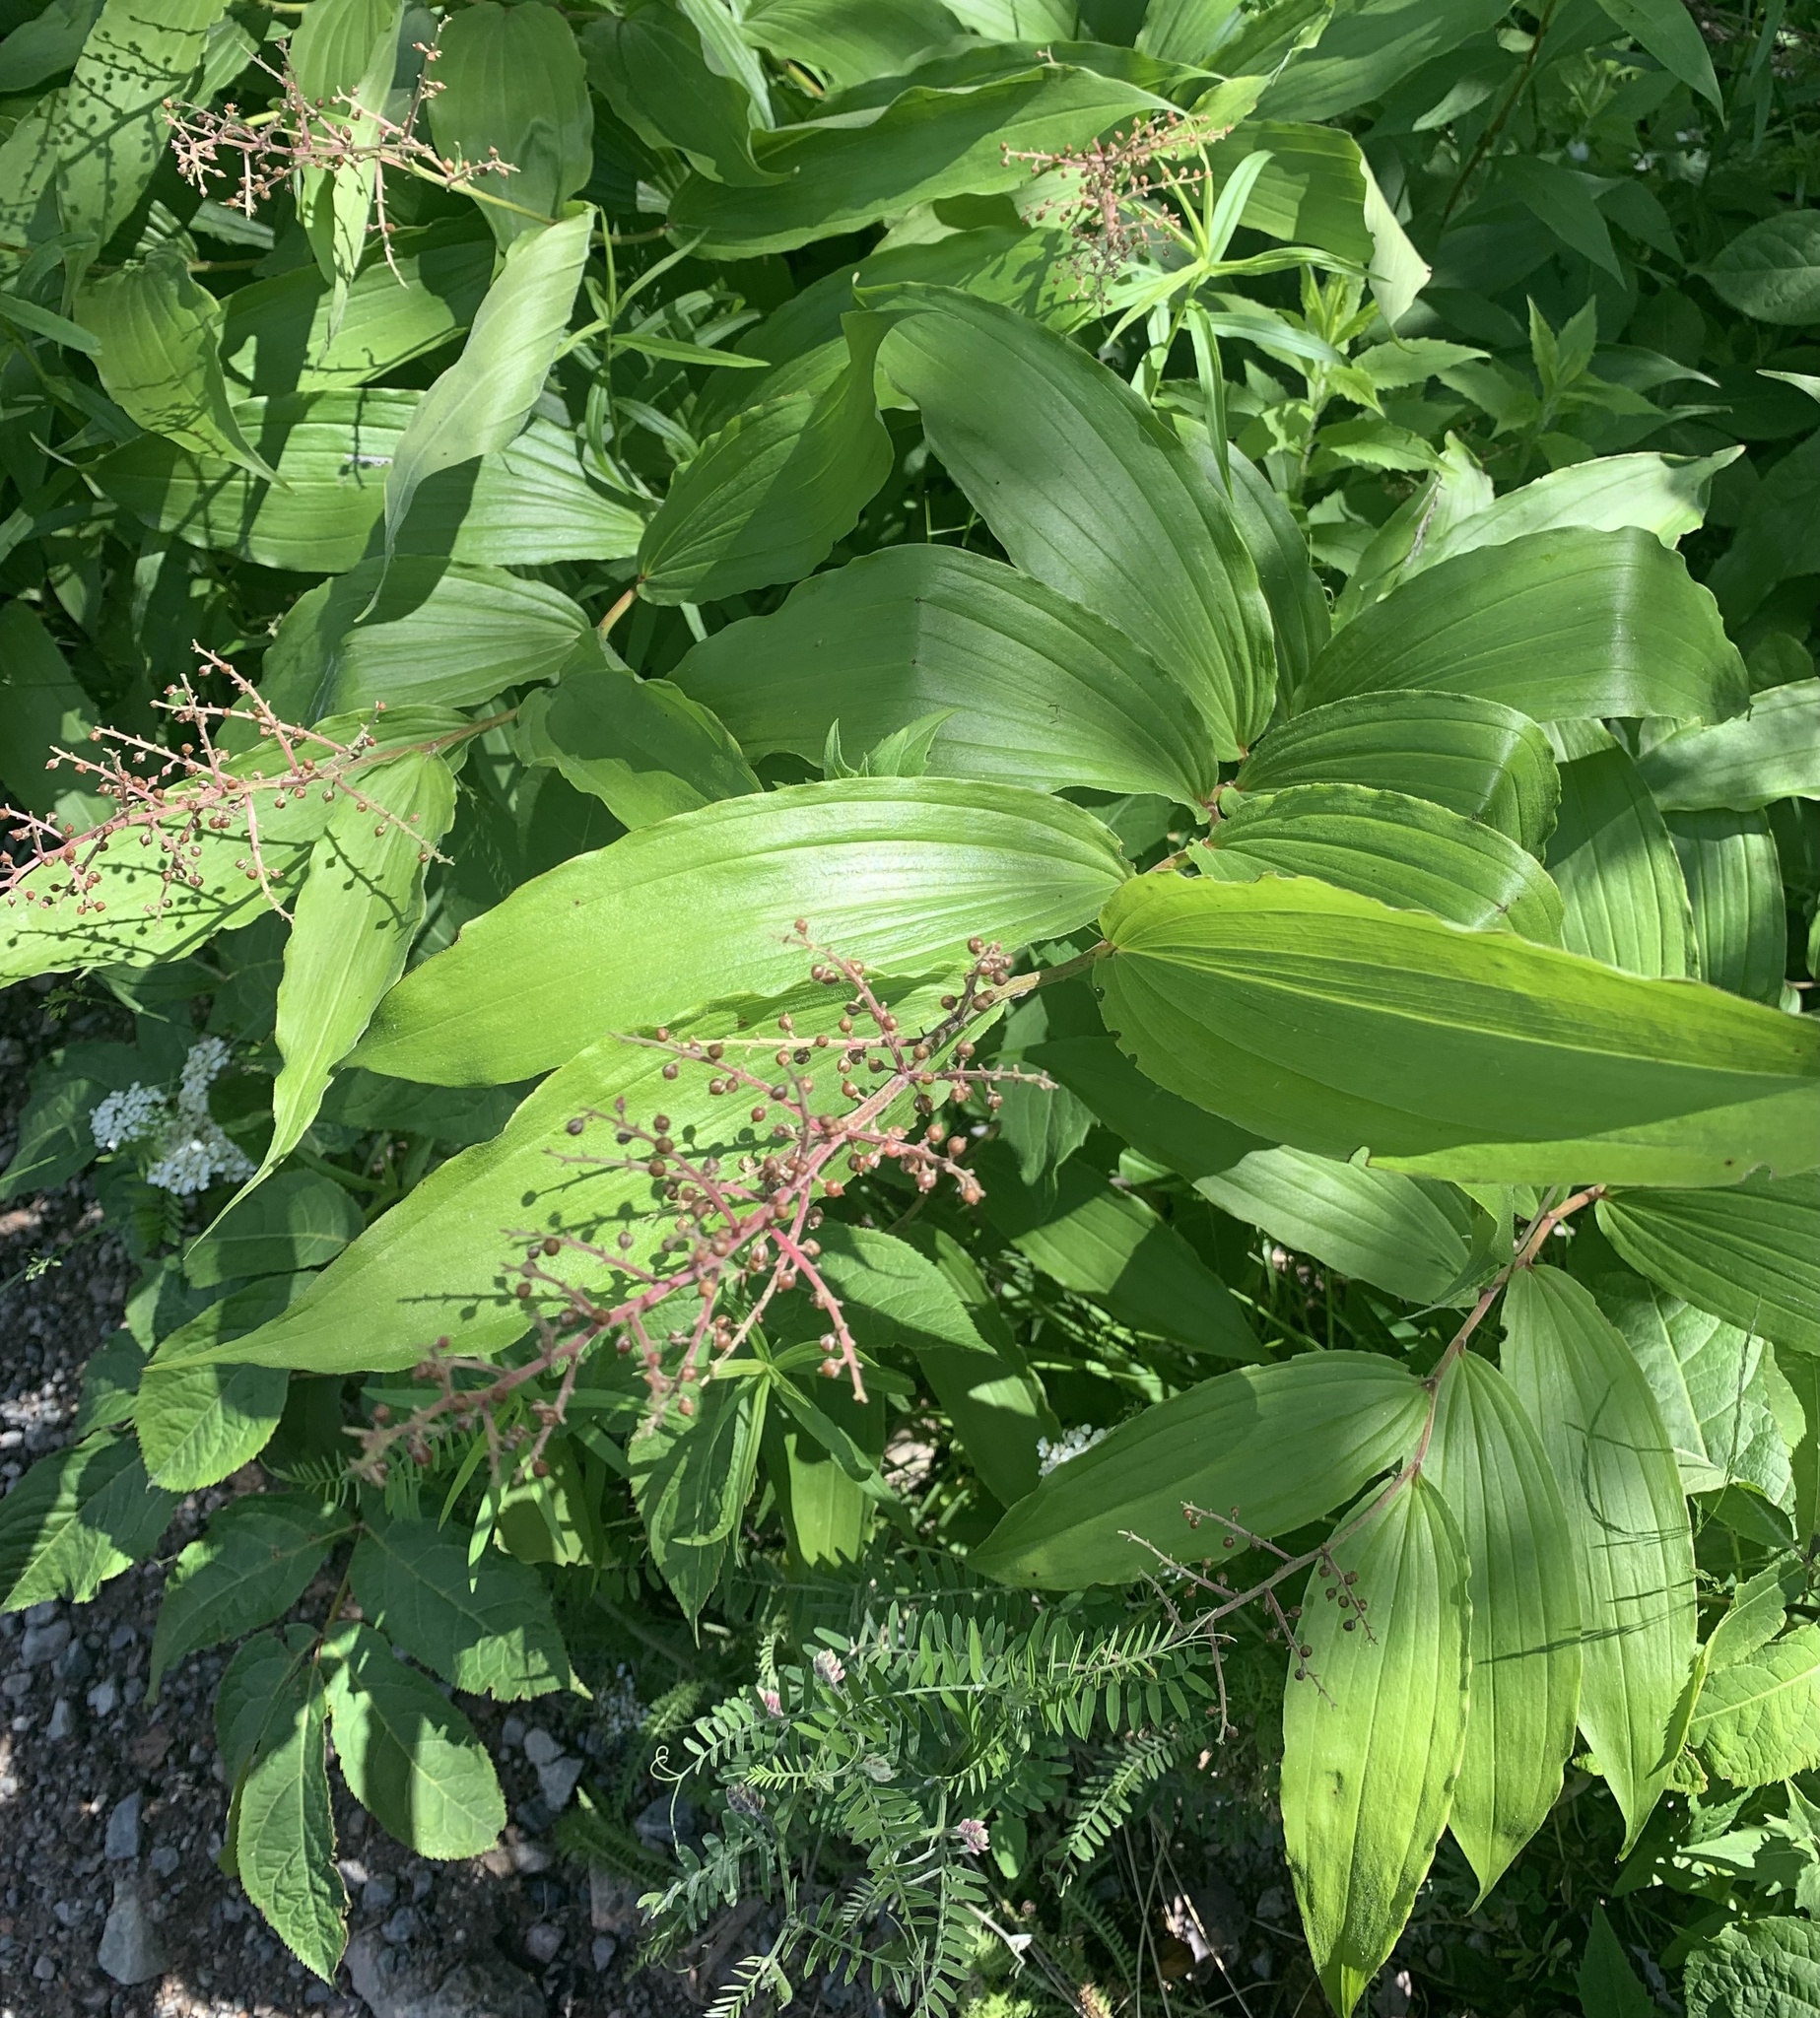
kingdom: Plantae
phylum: Tracheophyta
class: Liliopsida
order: Asparagales
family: Asparagaceae
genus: Maianthemum
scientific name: Maianthemum racemosum
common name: False spikenard
